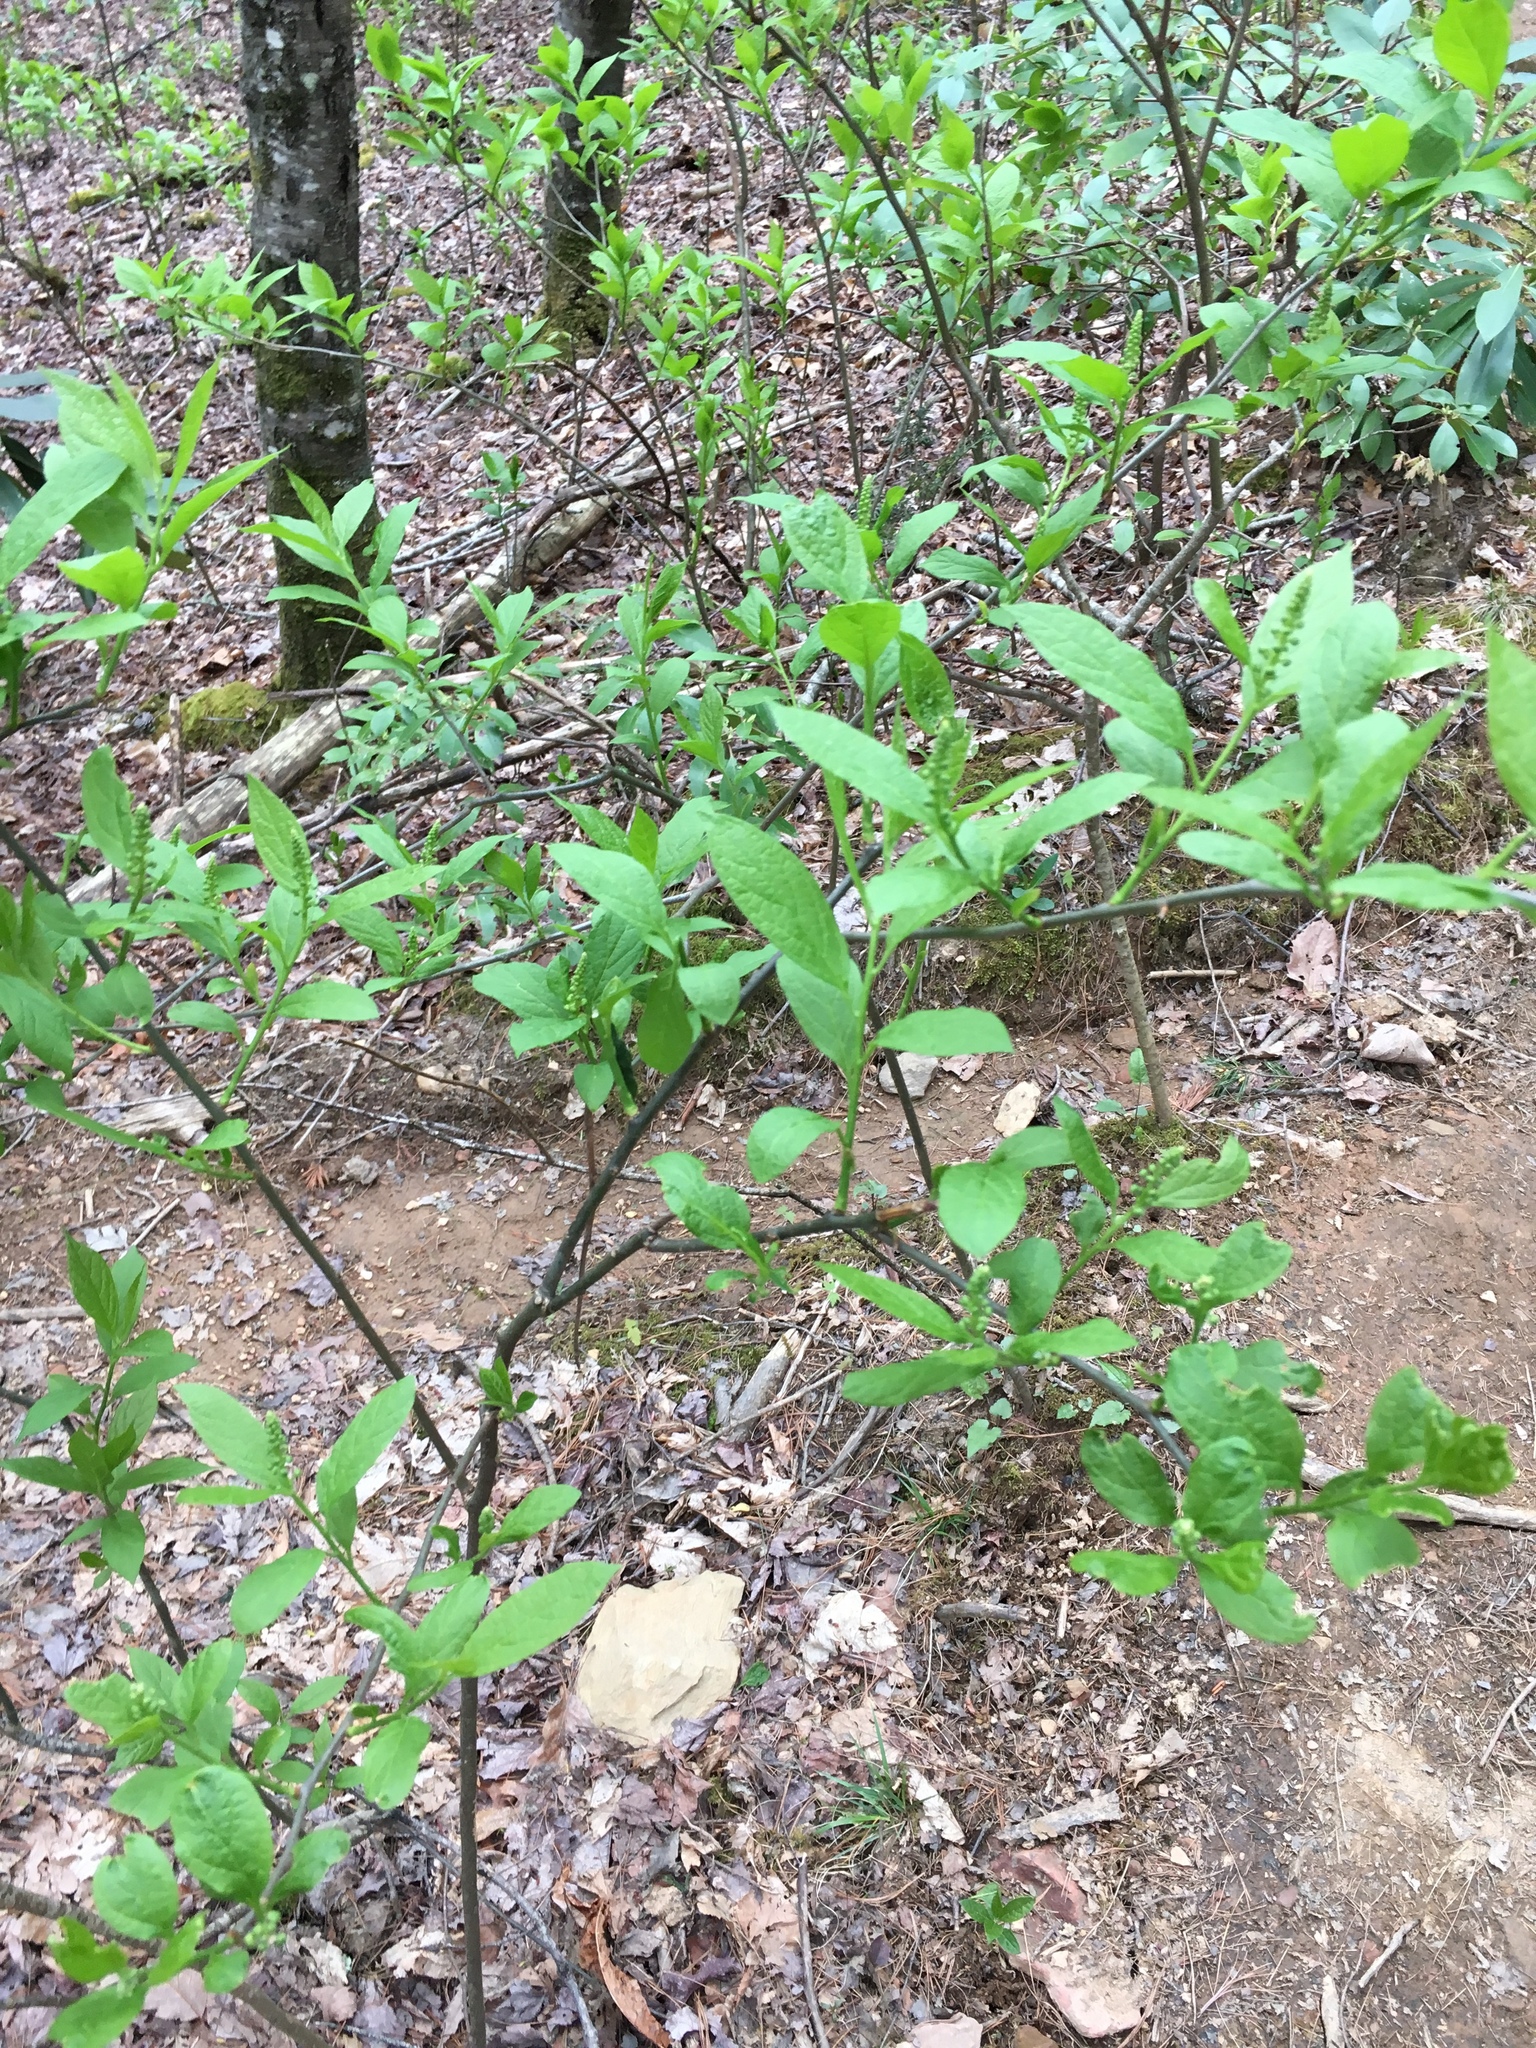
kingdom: Plantae
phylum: Tracheophyta
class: Magnoliopsida
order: Santalales
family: Cervantesiaceae
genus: Pyrularia
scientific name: Pyrularia pubera
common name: Oilnut
